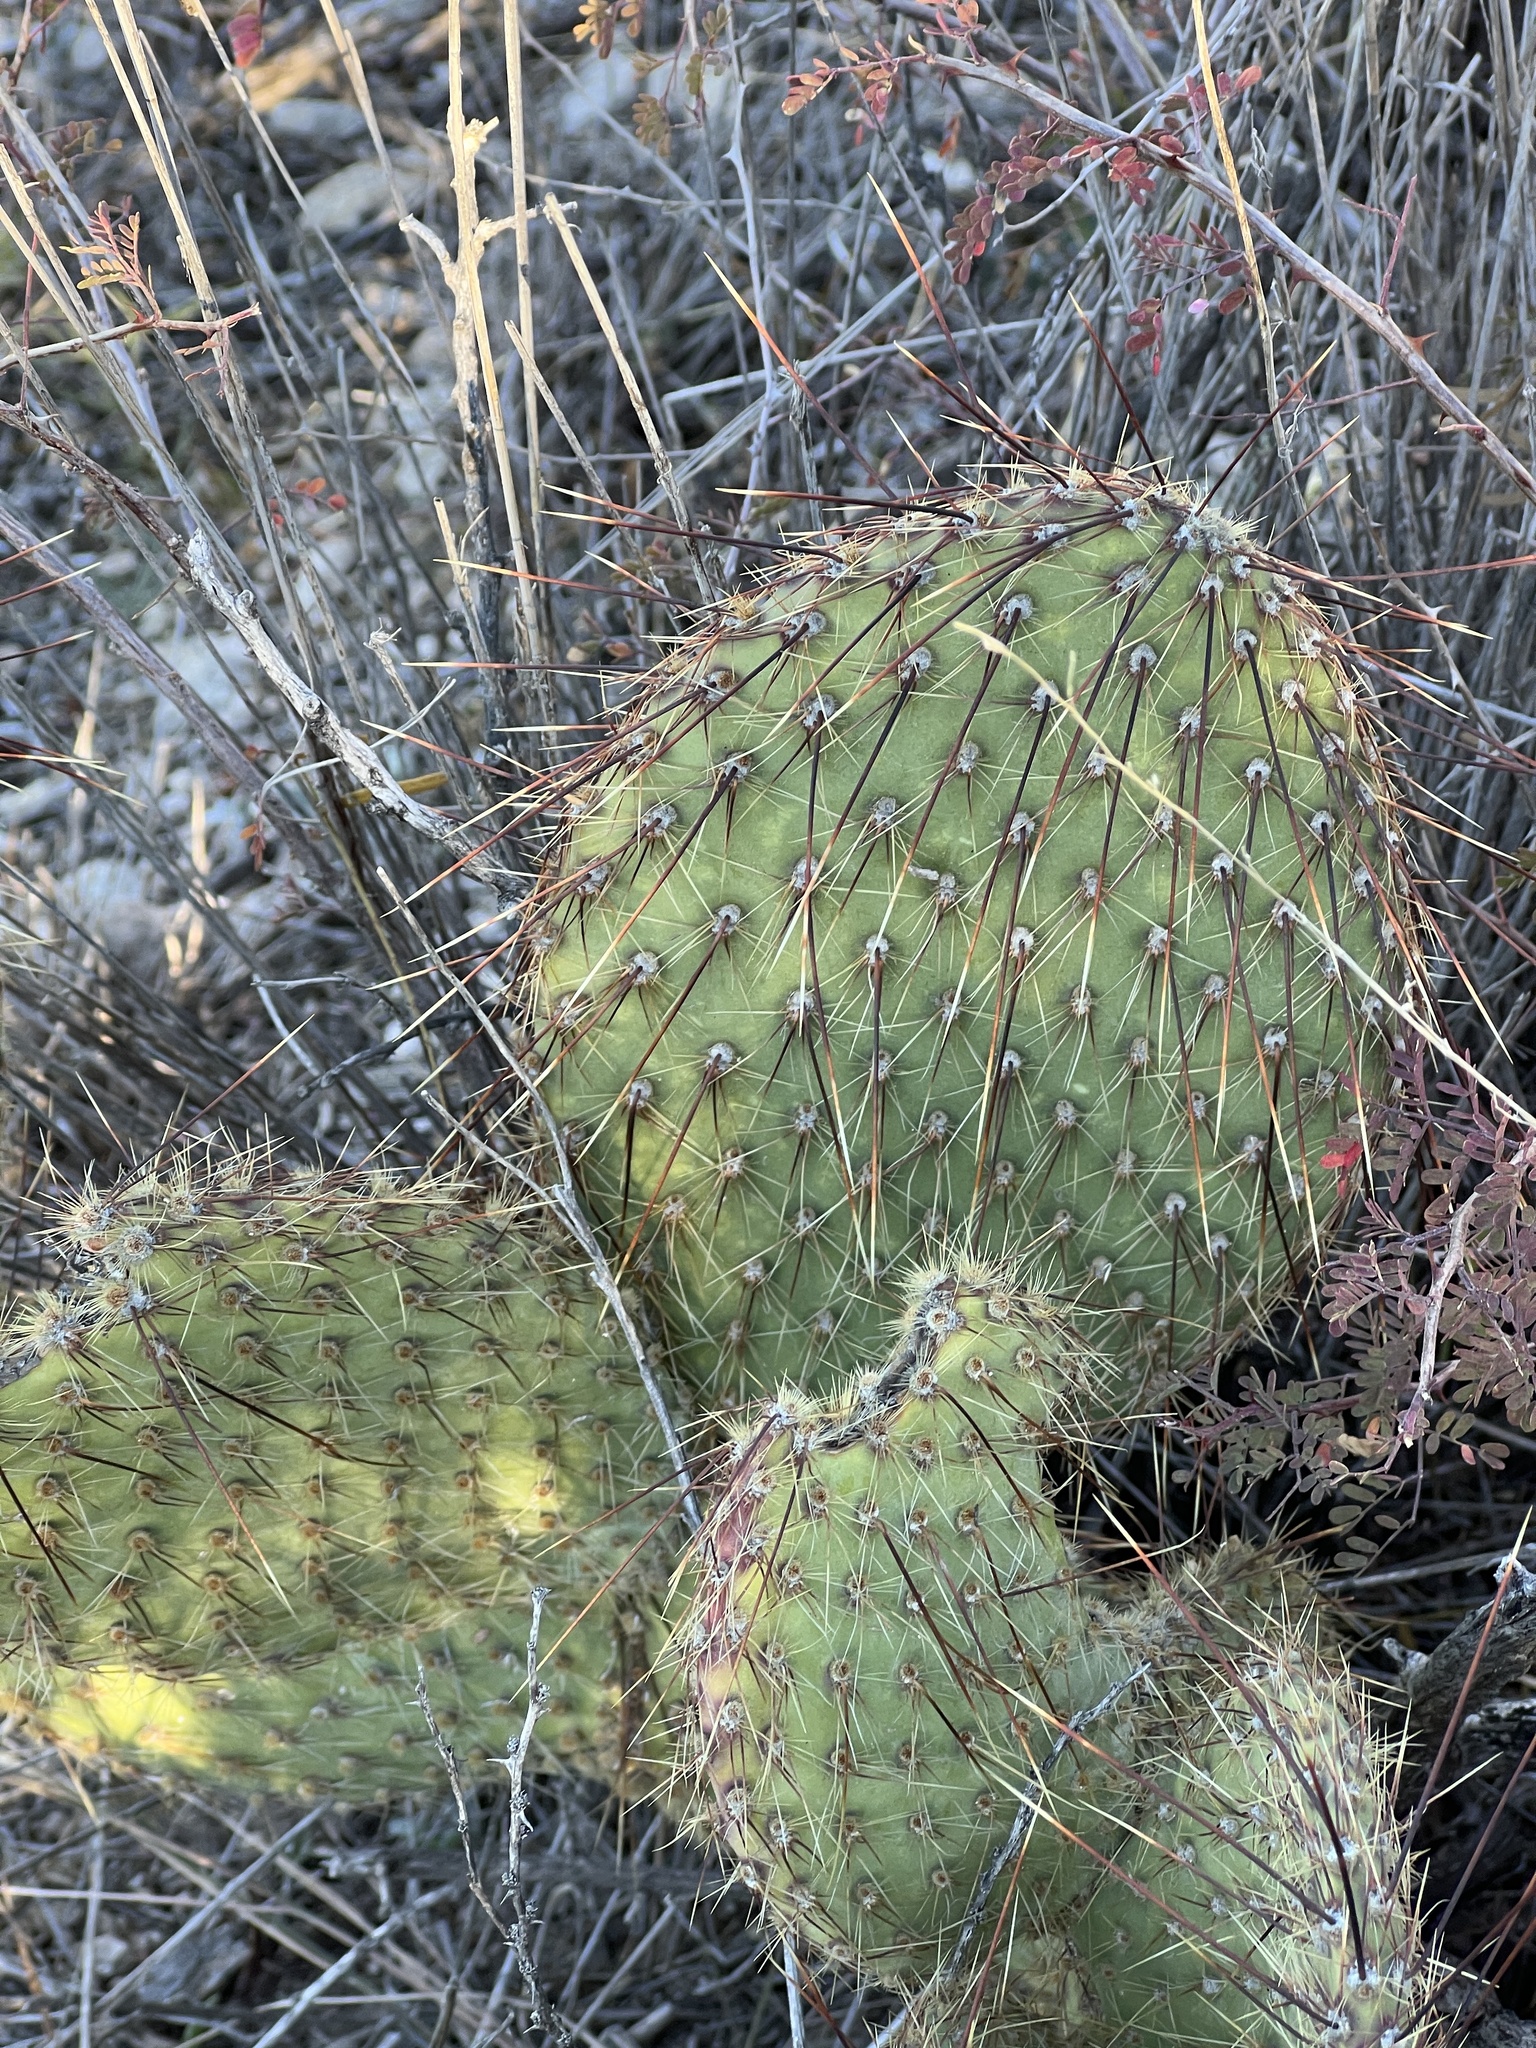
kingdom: Plantae
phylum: Tracheophyta
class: Magnoliopsida
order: Caryophyllales
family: Cactaceae
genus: Opuntia
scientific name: Opuntia strigil
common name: Marble-fruit prickly-pear
